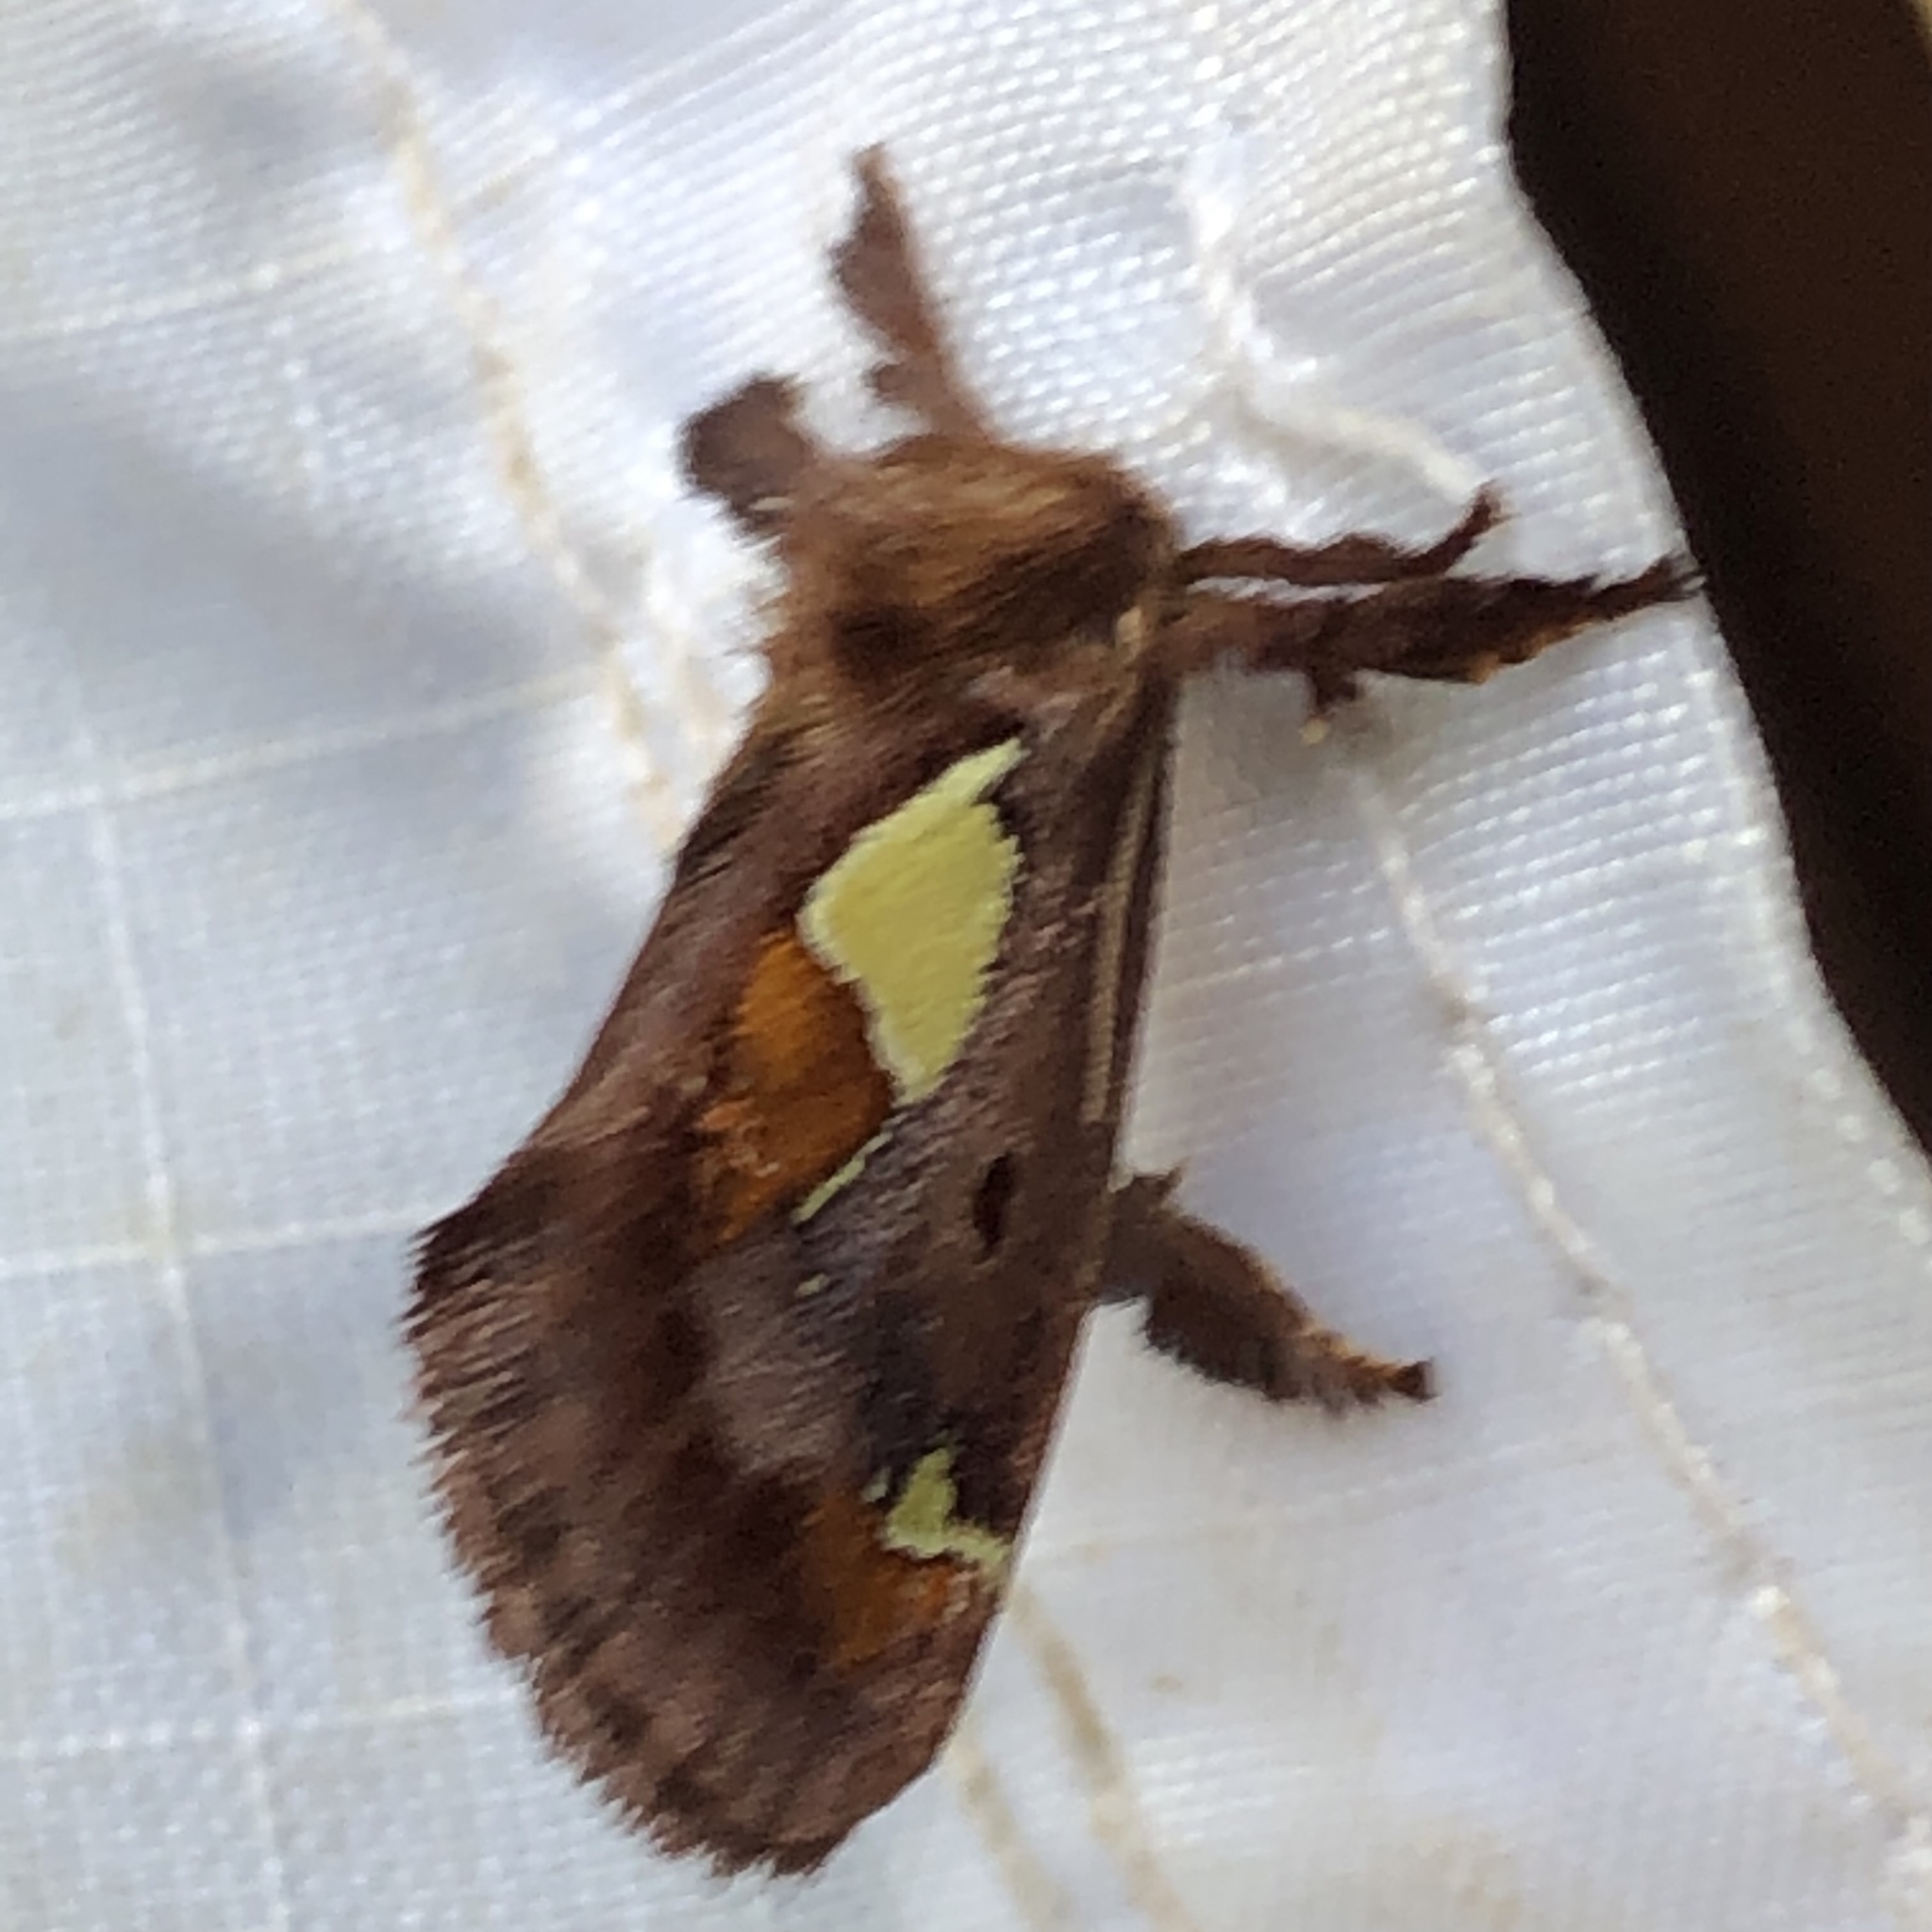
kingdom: Animalia
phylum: Arthropoda
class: Insecta
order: Lepidoptera
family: Limacodidae
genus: Euclea
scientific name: Euclea delphinii
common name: Spiny oak-slug moth
